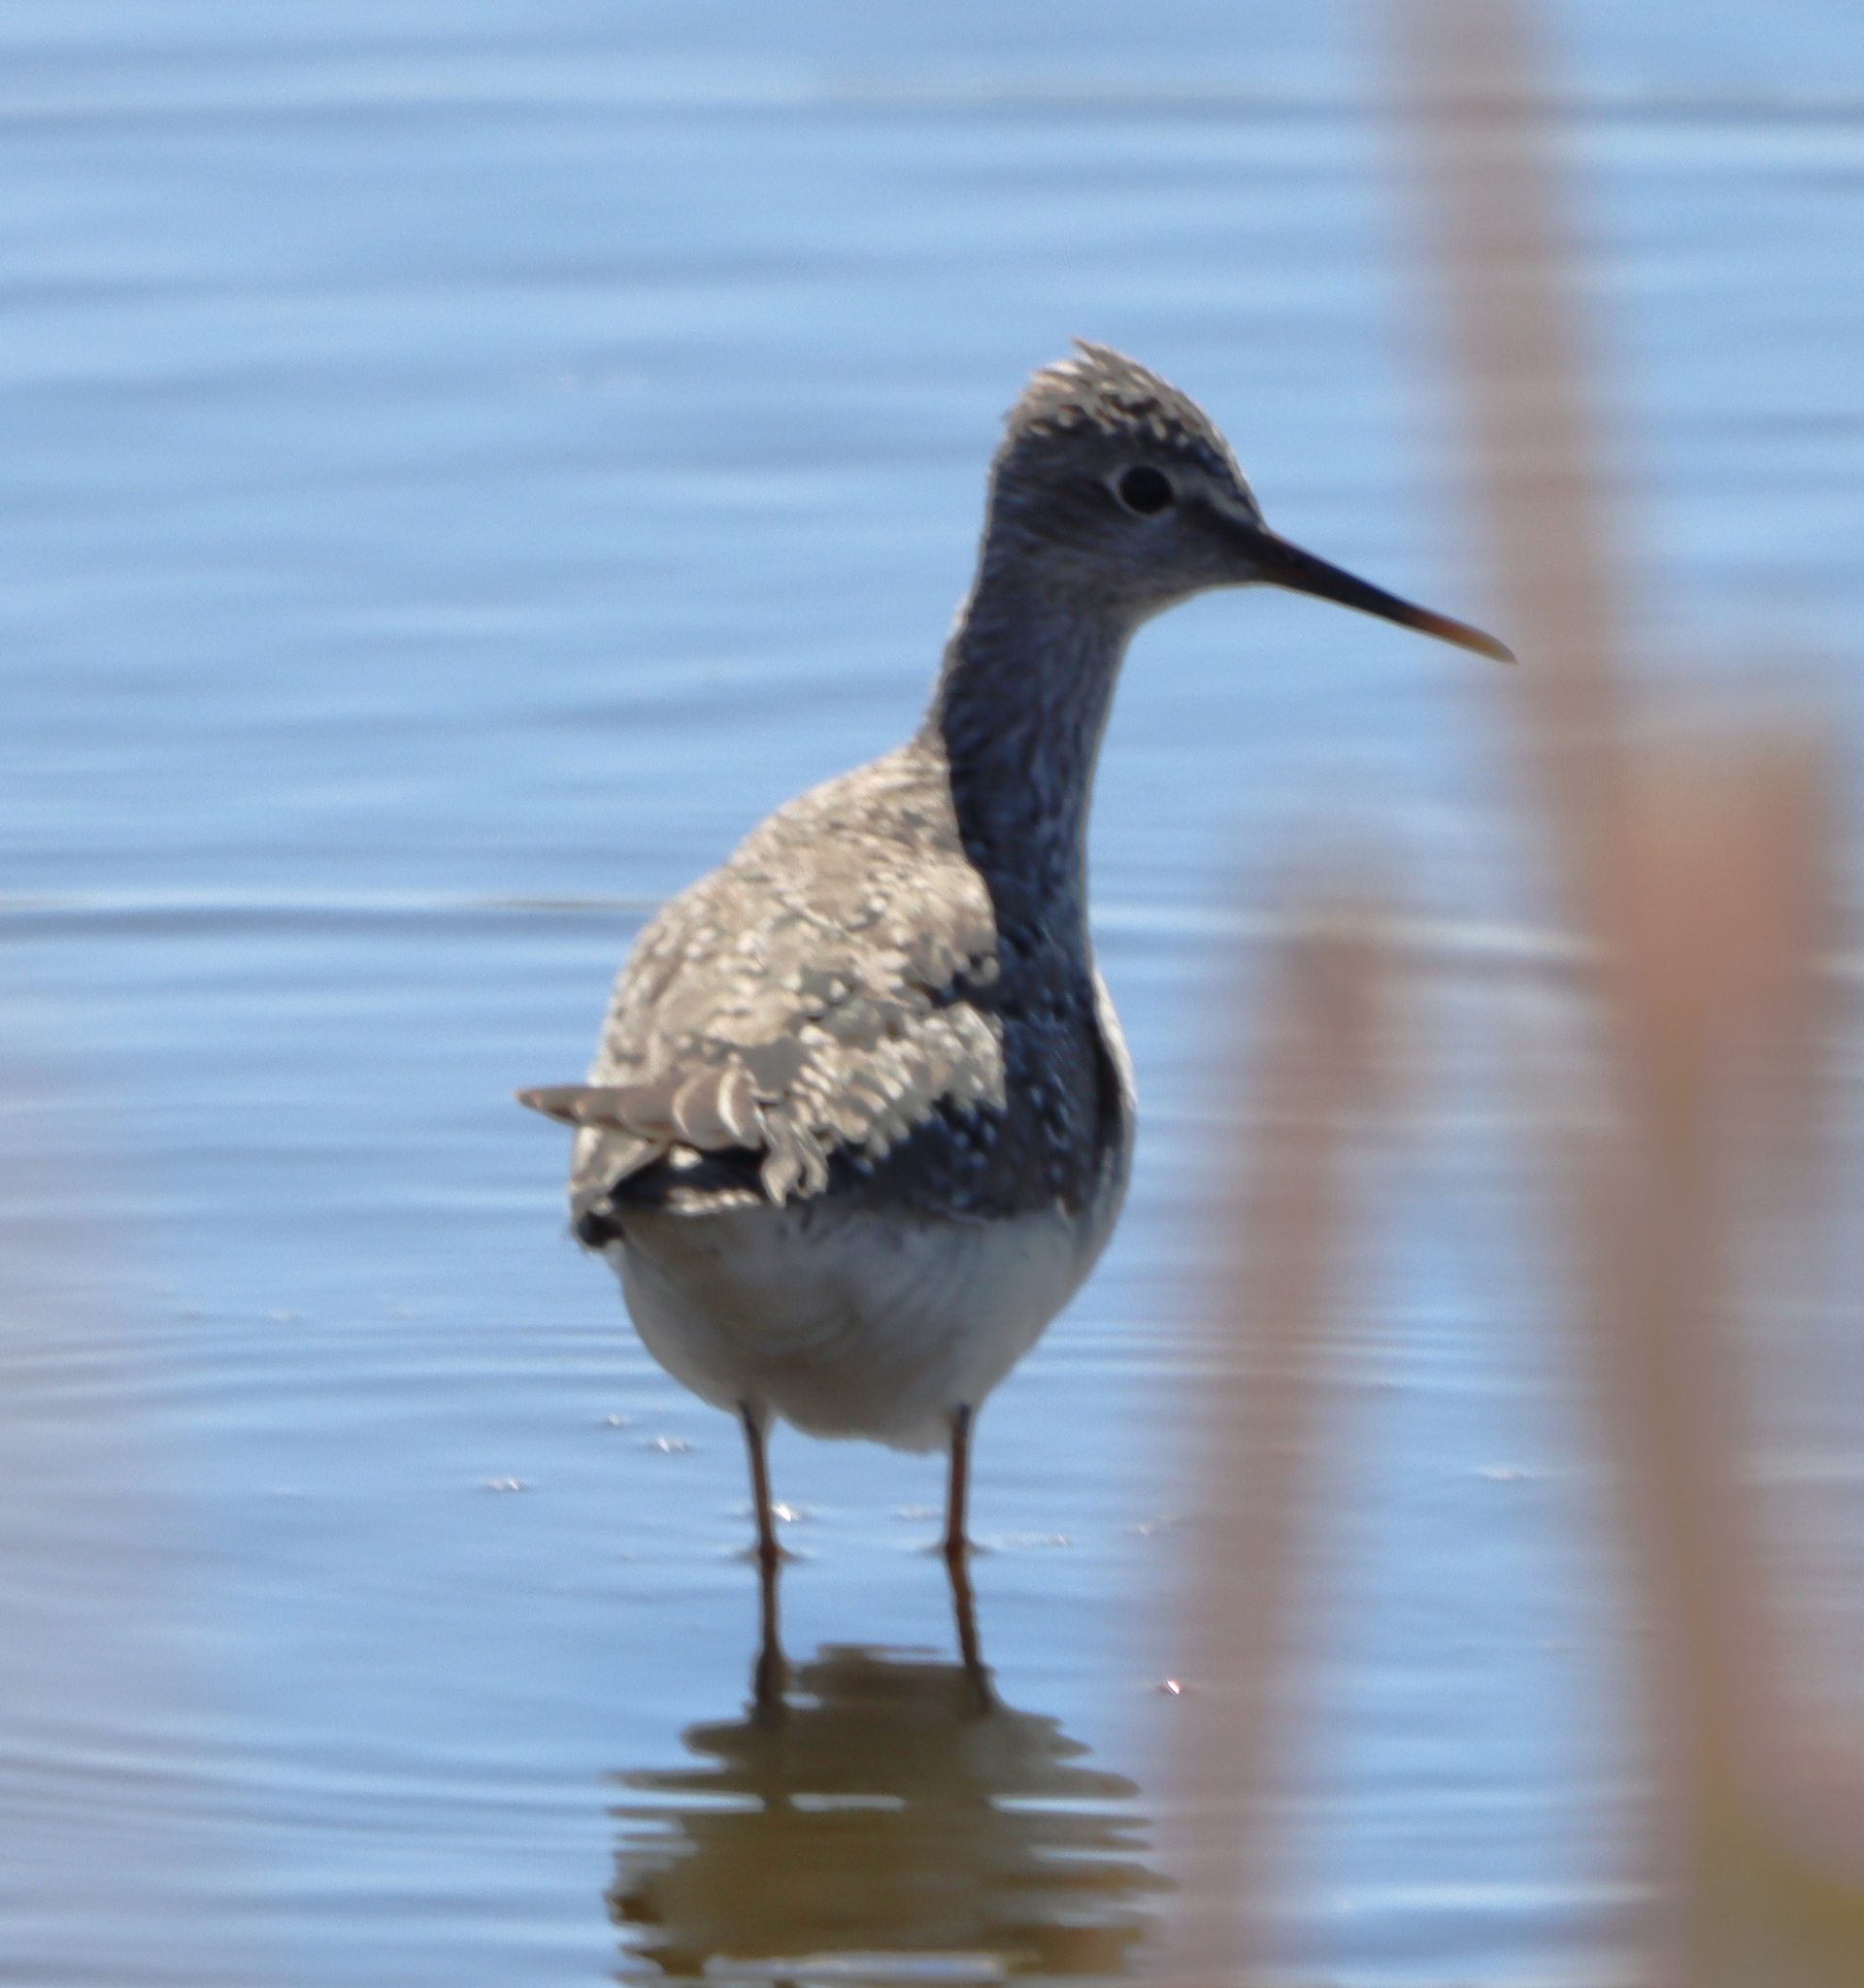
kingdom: Animalia
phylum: Chordata
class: Aves
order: Charadriiformes
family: Scolopacidae
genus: Tringa
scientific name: Tringa flavipes
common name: Lesser yellowlegs
